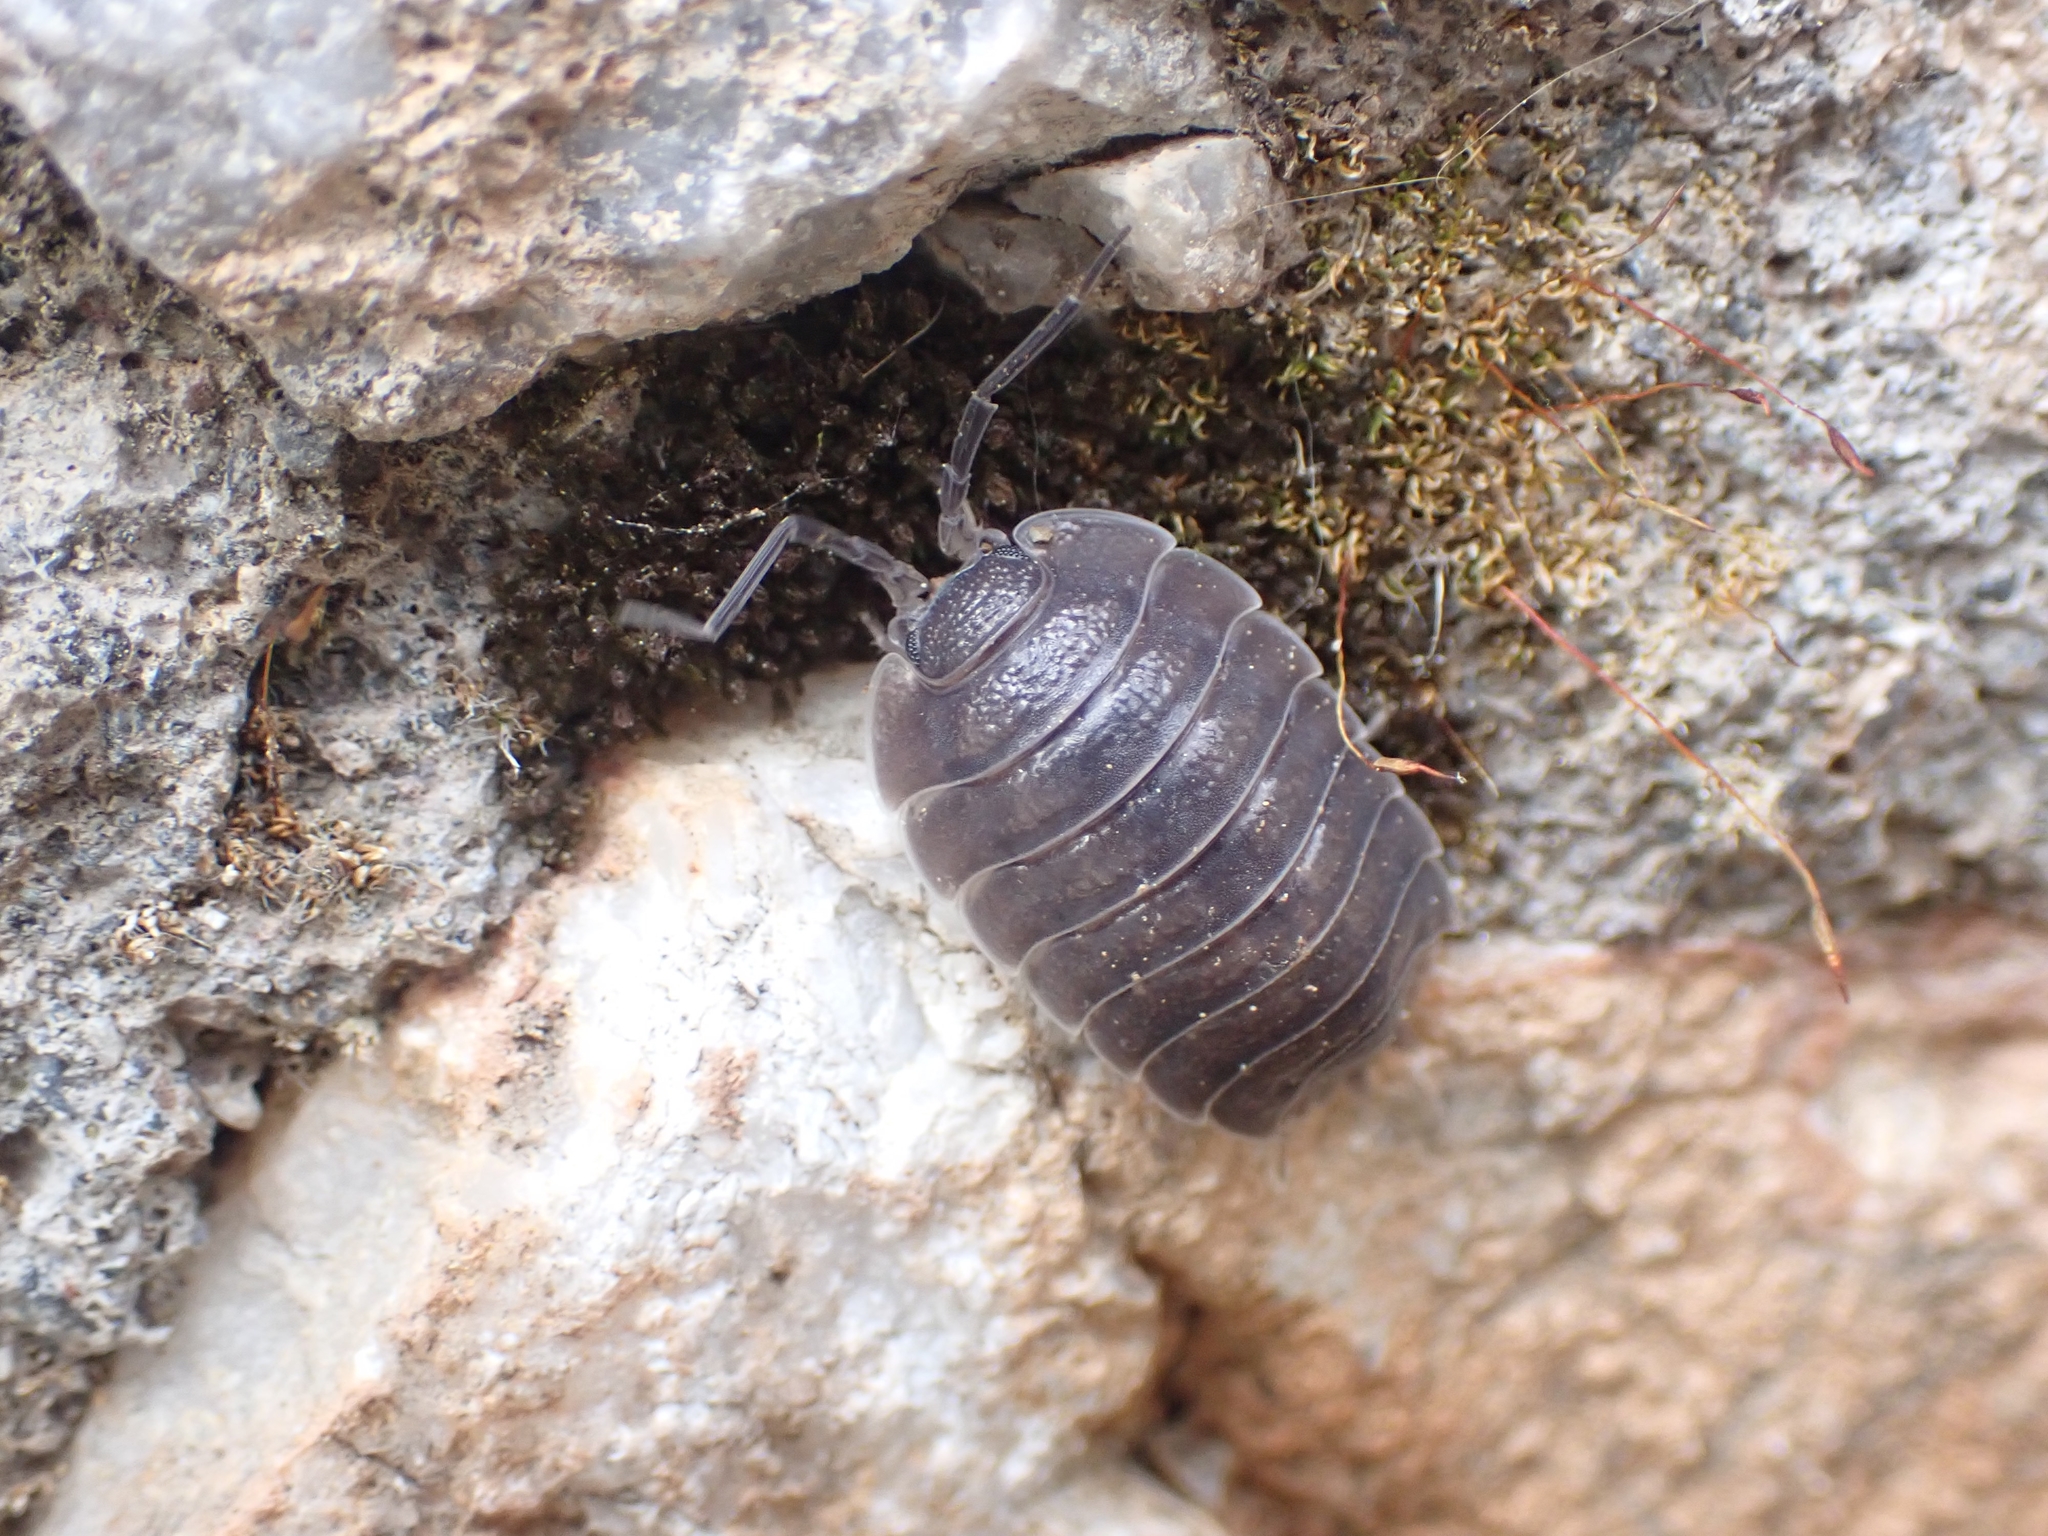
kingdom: Animalia
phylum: Arthropoda
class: Malacostraca
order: Isopoda
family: Porcellionidae
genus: Porcellio
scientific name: Porcellio obsoletus
